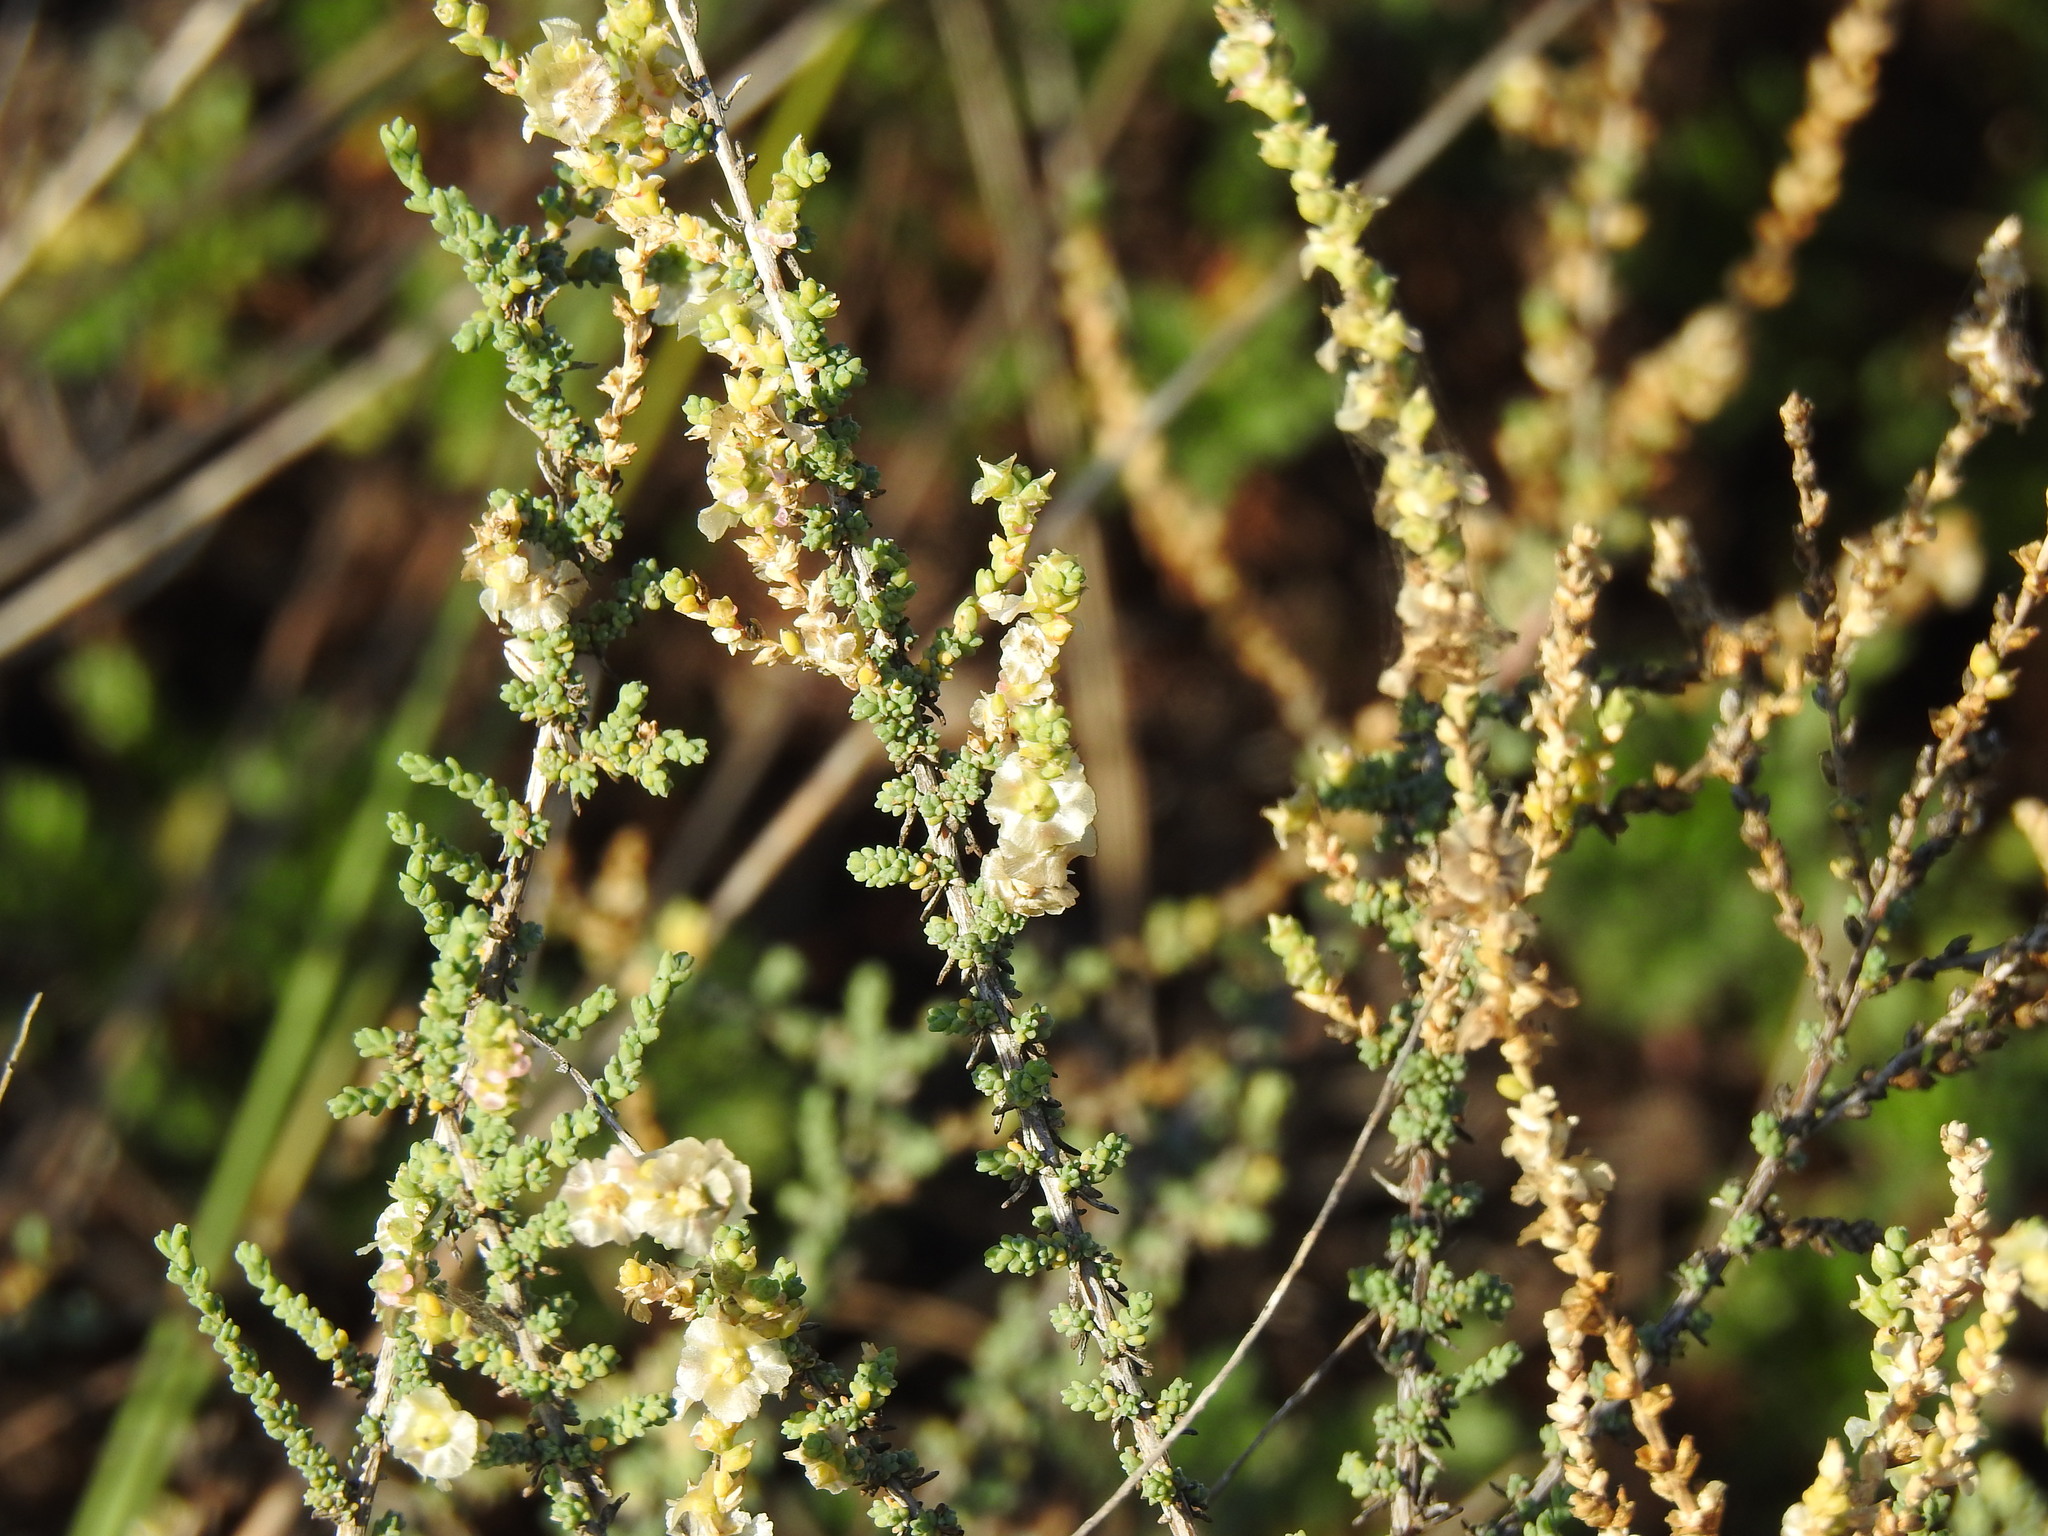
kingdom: Plantae
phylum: Tracheophyta
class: Magnoliopsida
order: Caryophyllales
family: Amaranthaceae
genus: Nitrosalsola
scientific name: Nitrosalsola vermiculata
